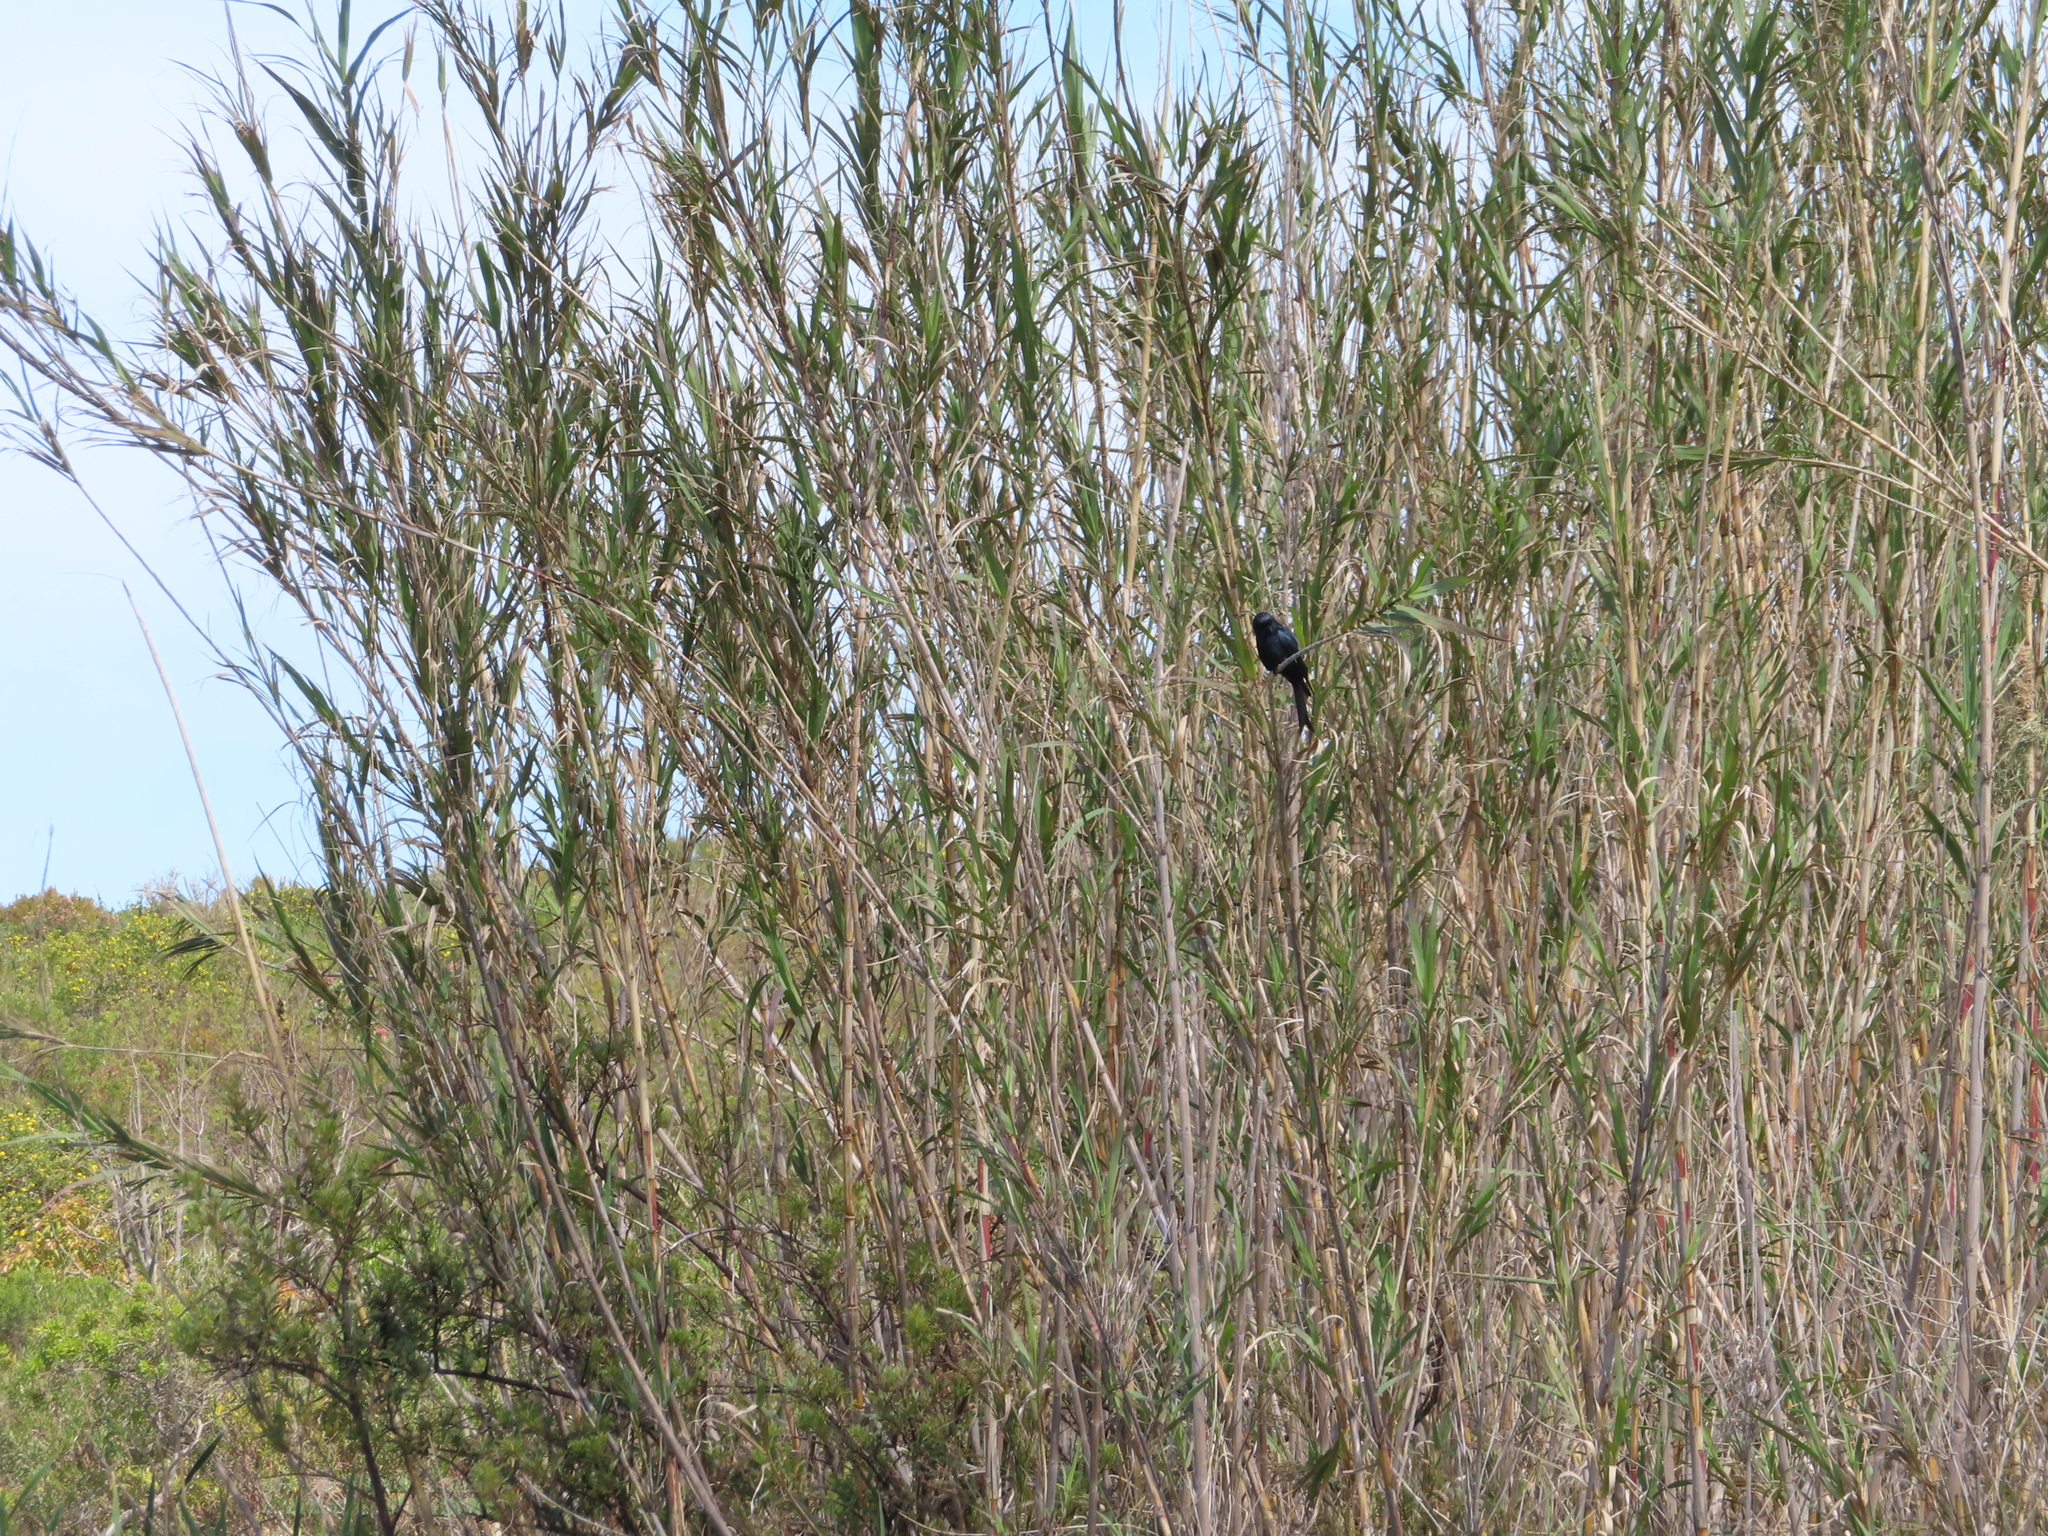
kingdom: Animalia
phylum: Chordata
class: Aves
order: Passeriformes
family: Dicruridae
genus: Dicrurus
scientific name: Dicrurus adsimilis
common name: Fork-tailed drongo
